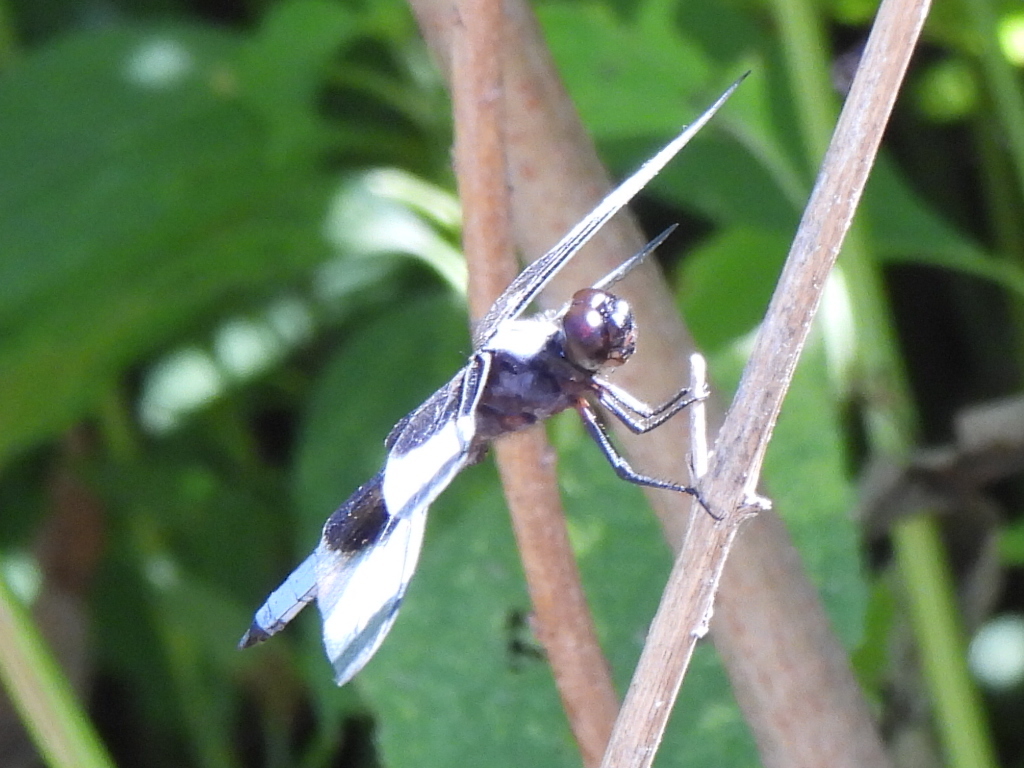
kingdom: Animalia
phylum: Arthropoda
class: Insecta
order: Odonata
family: Libellulidae
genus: Libellula
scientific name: Libellula luctuosa
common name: Widow skimmer
